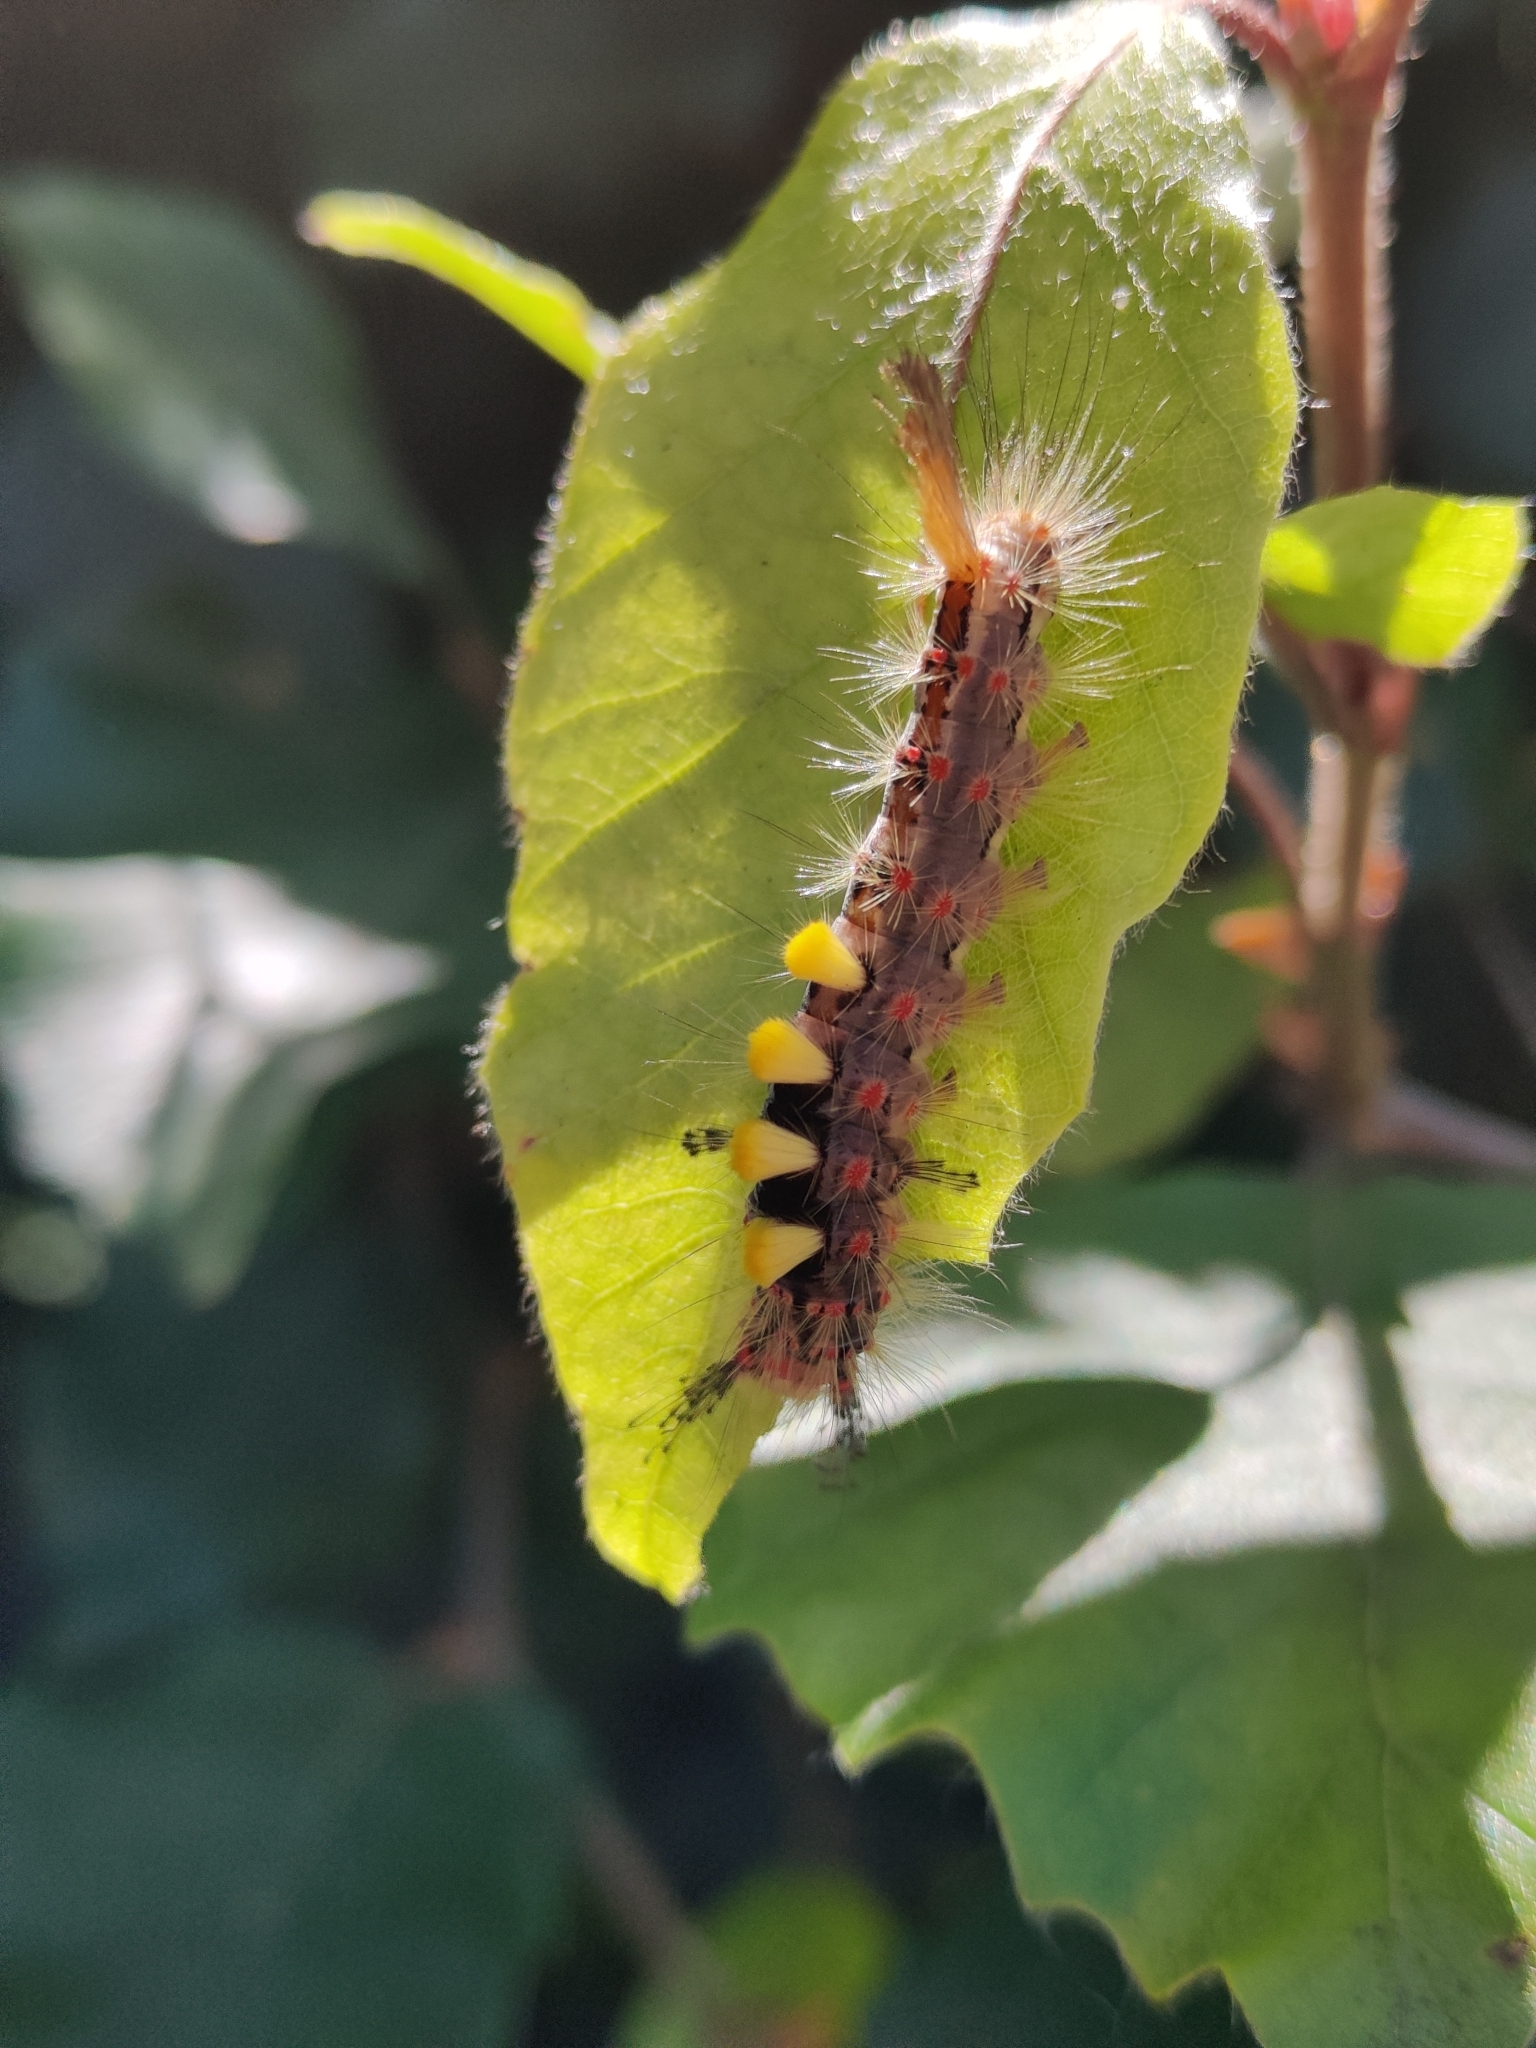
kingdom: Animalia
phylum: Arthropoda
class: Insecta
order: Lepidoptera
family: Erebidae
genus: Orgyia
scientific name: Orgyia antiqua
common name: Vapourer
